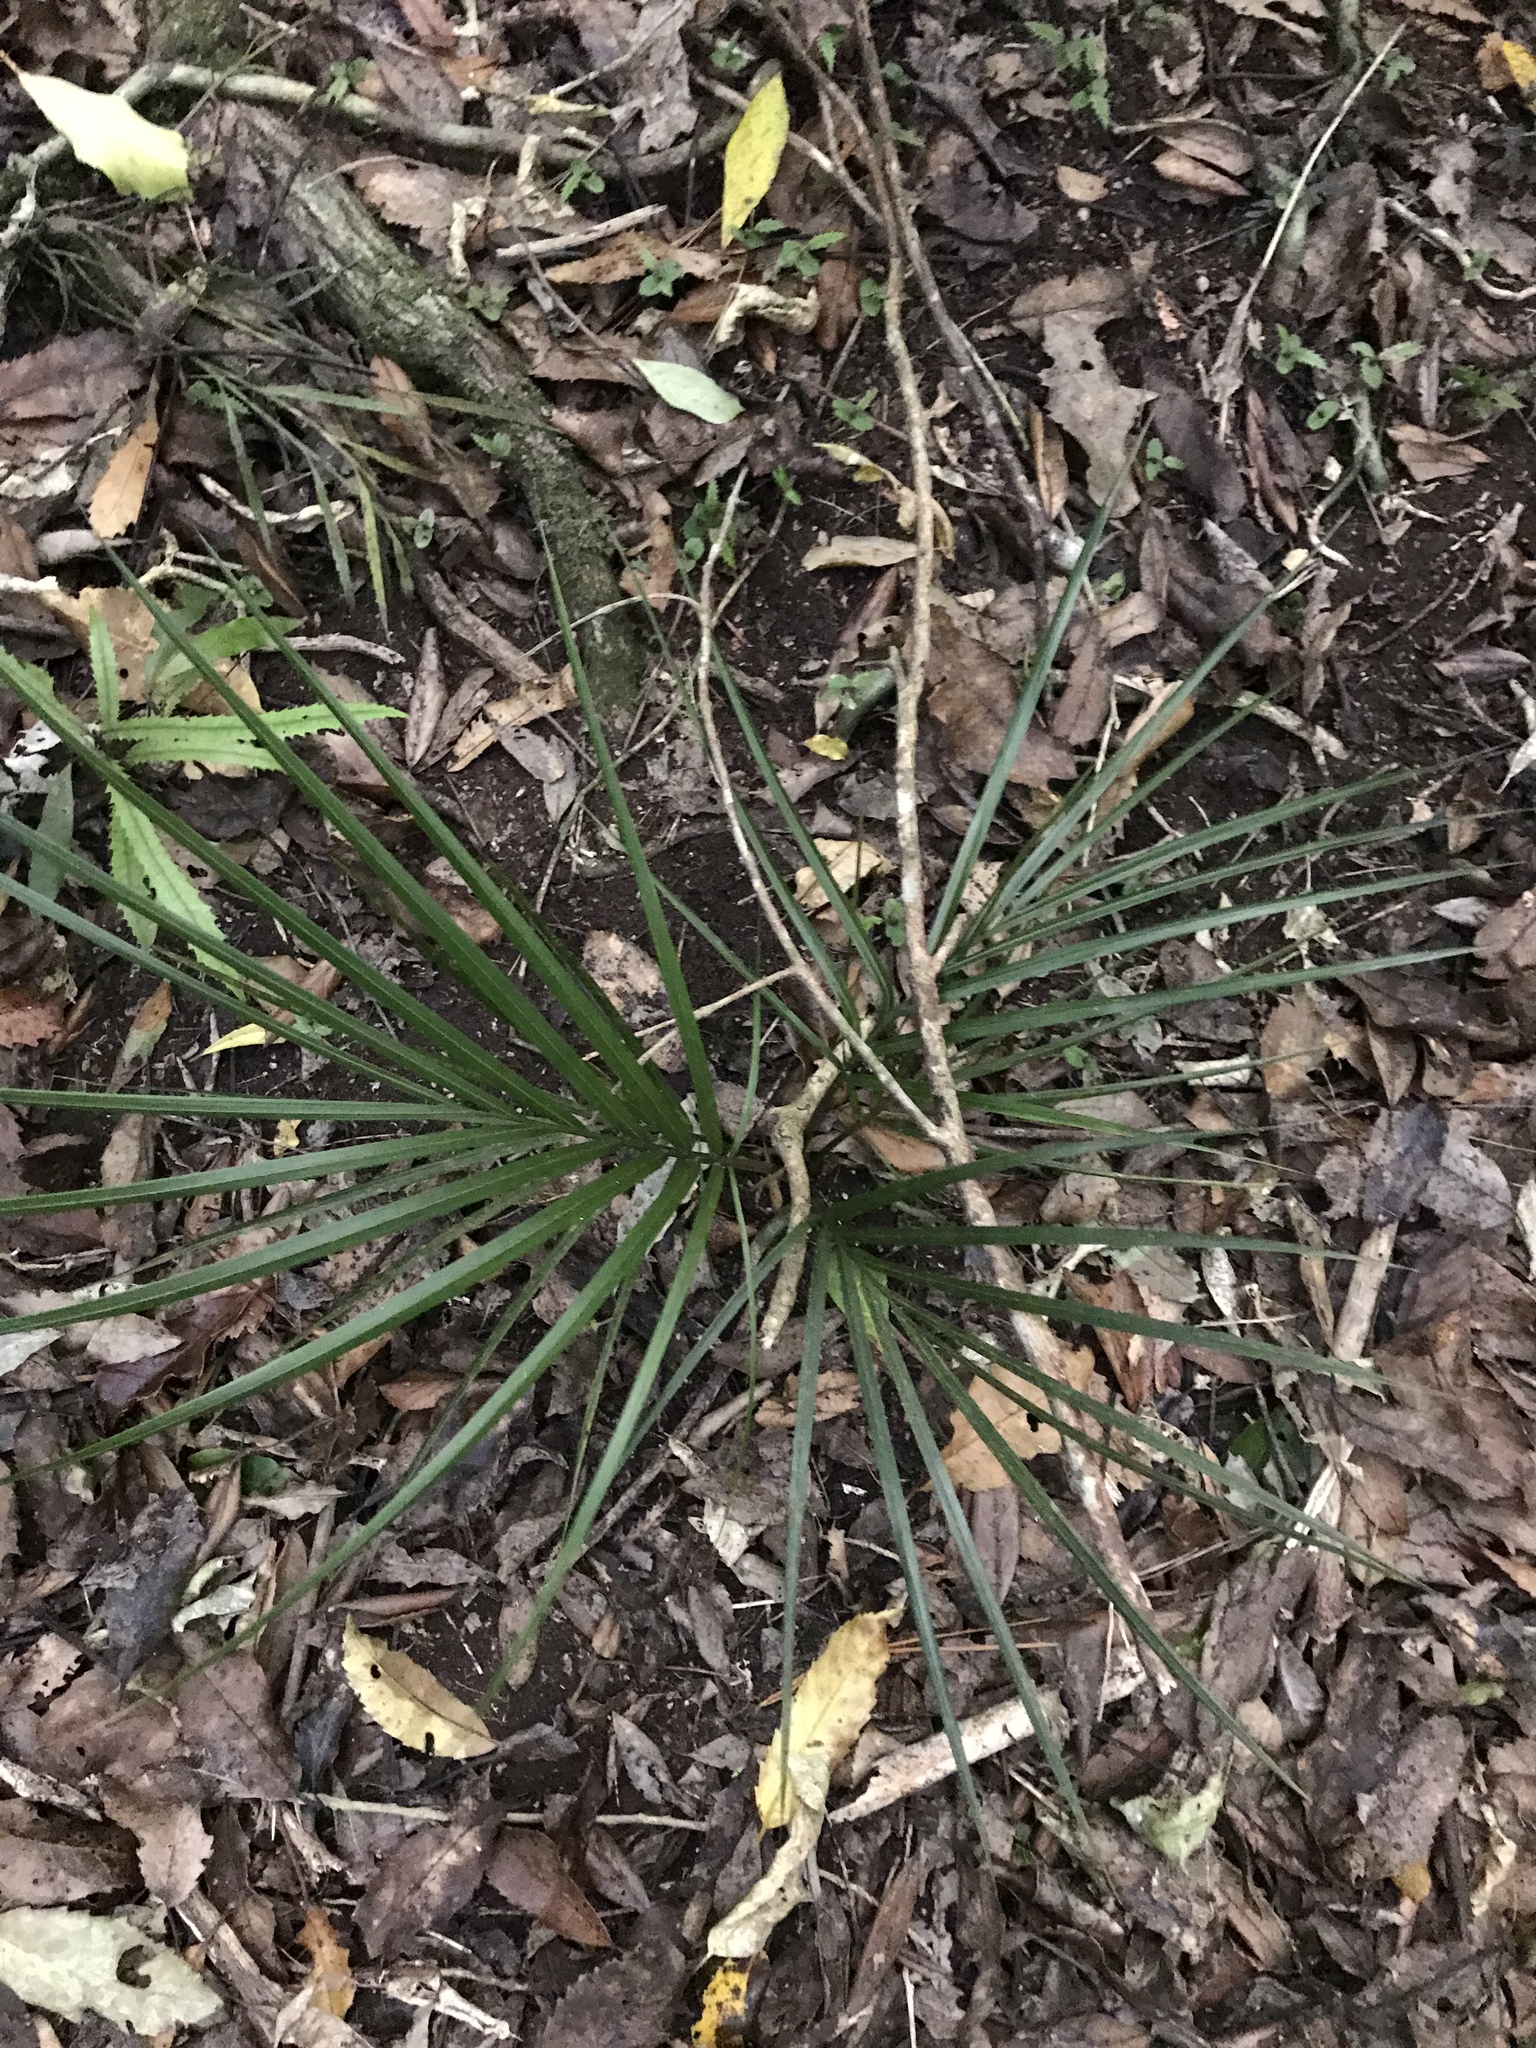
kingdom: Plantae
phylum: Tracheophyta
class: Liliopsida
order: Arecales
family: Arecaceae
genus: Rhopalostylis
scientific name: Rhopalostylis sapida
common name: Feather-duster palm
